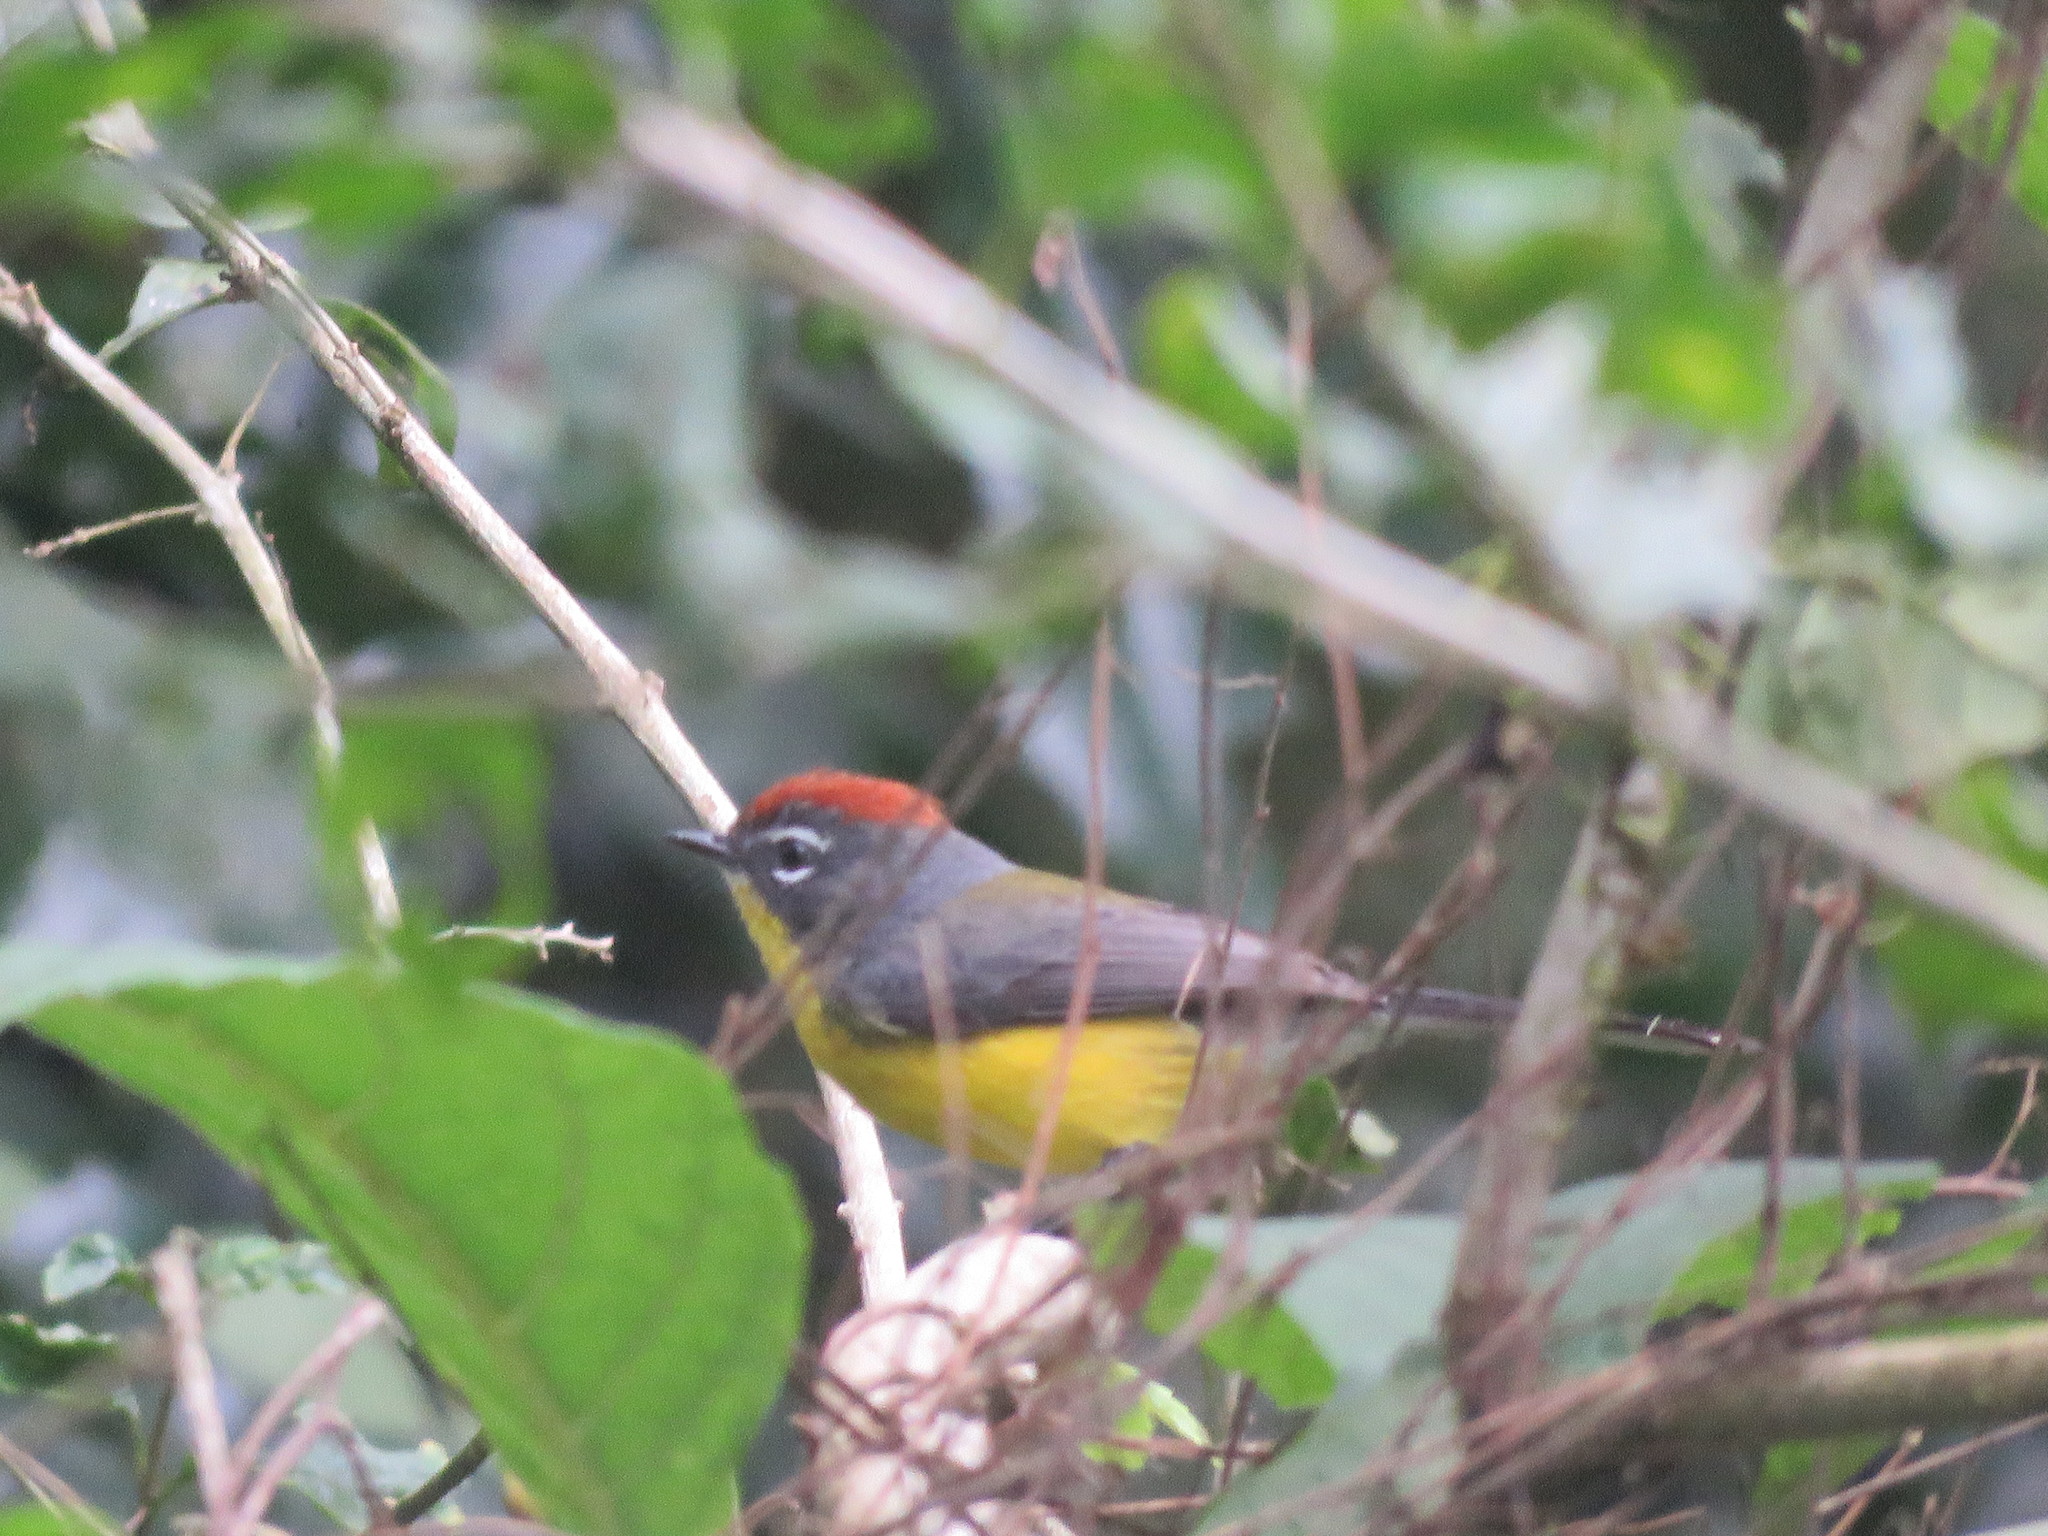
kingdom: Animalia
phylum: Chordata
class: Aves
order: Passeriformes
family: Parulidae
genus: Myioborus
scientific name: Myioborus brunniceps
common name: Brown-capped whitestart
